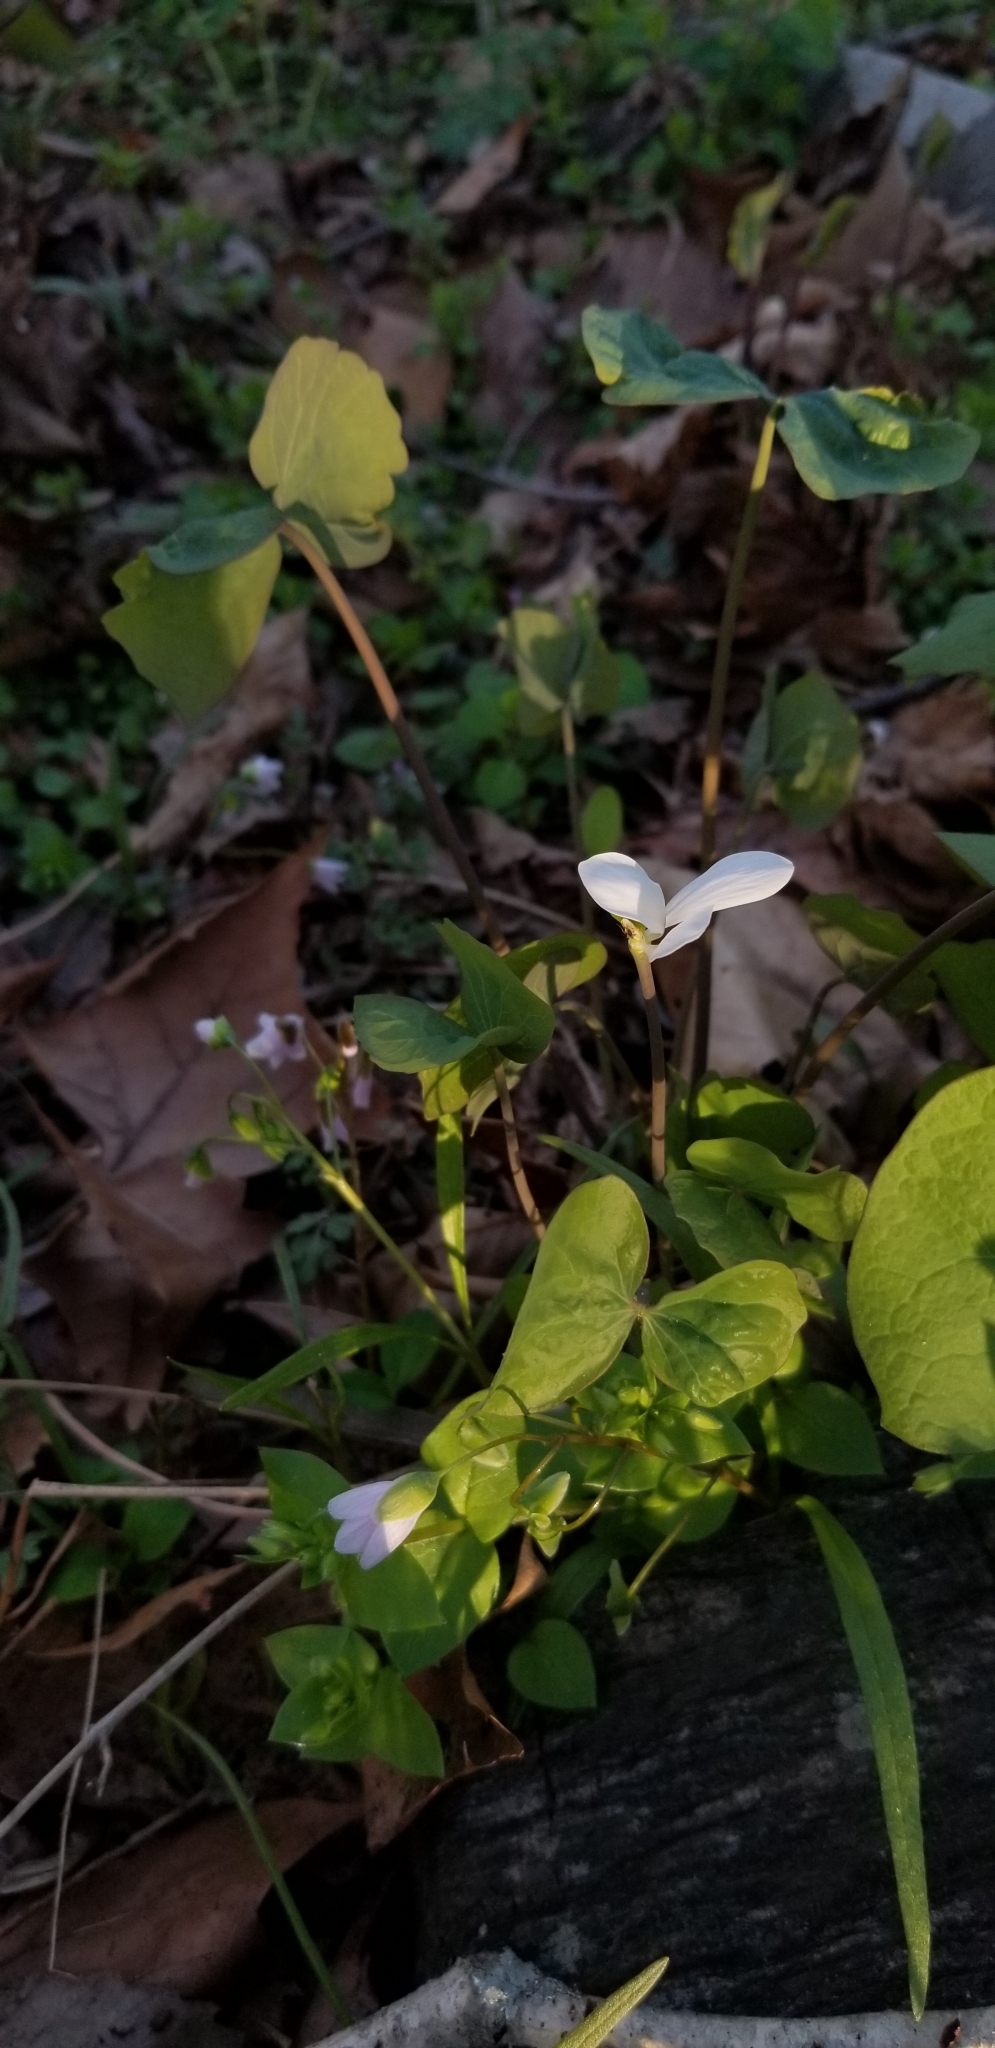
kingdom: Plantae
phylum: Tracheophyta
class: Magnoliopsida
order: Ranunculales
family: Berberidaceae
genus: Jeffersonia
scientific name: Jeffersonia diphylla
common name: Rheumatism-root
